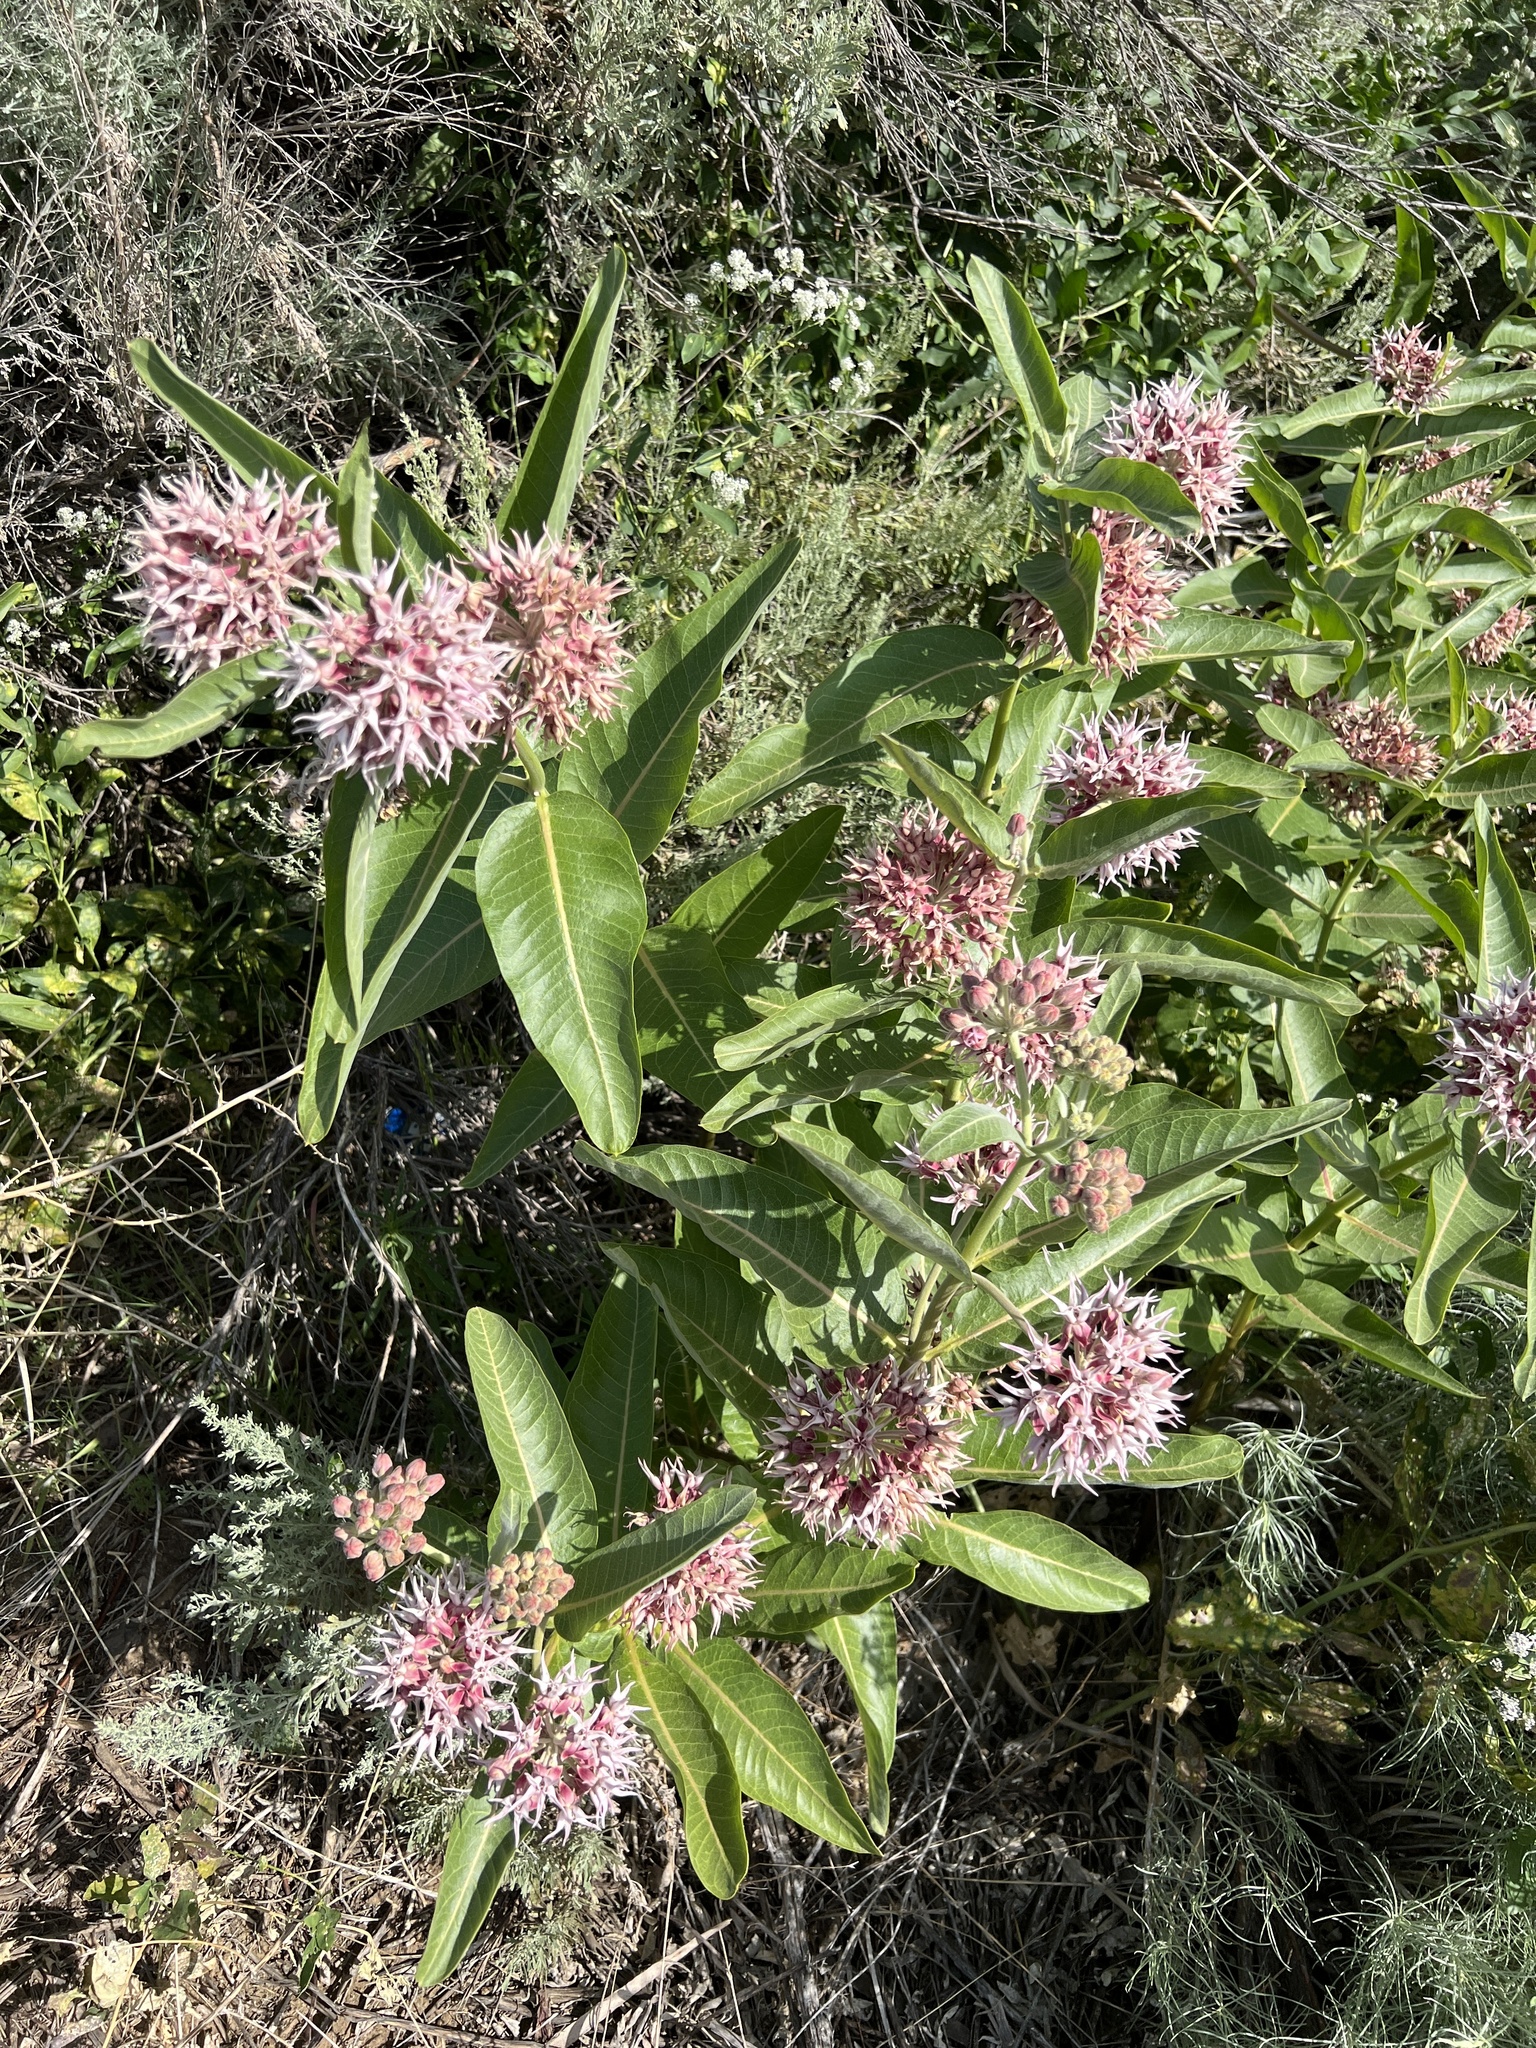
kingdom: Plantae
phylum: Tracheophyta
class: Magnoliopsida
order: Gentianales
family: Apocynaceae
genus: Asclepias
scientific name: Asclepias speciosa
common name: Showy milkweed
